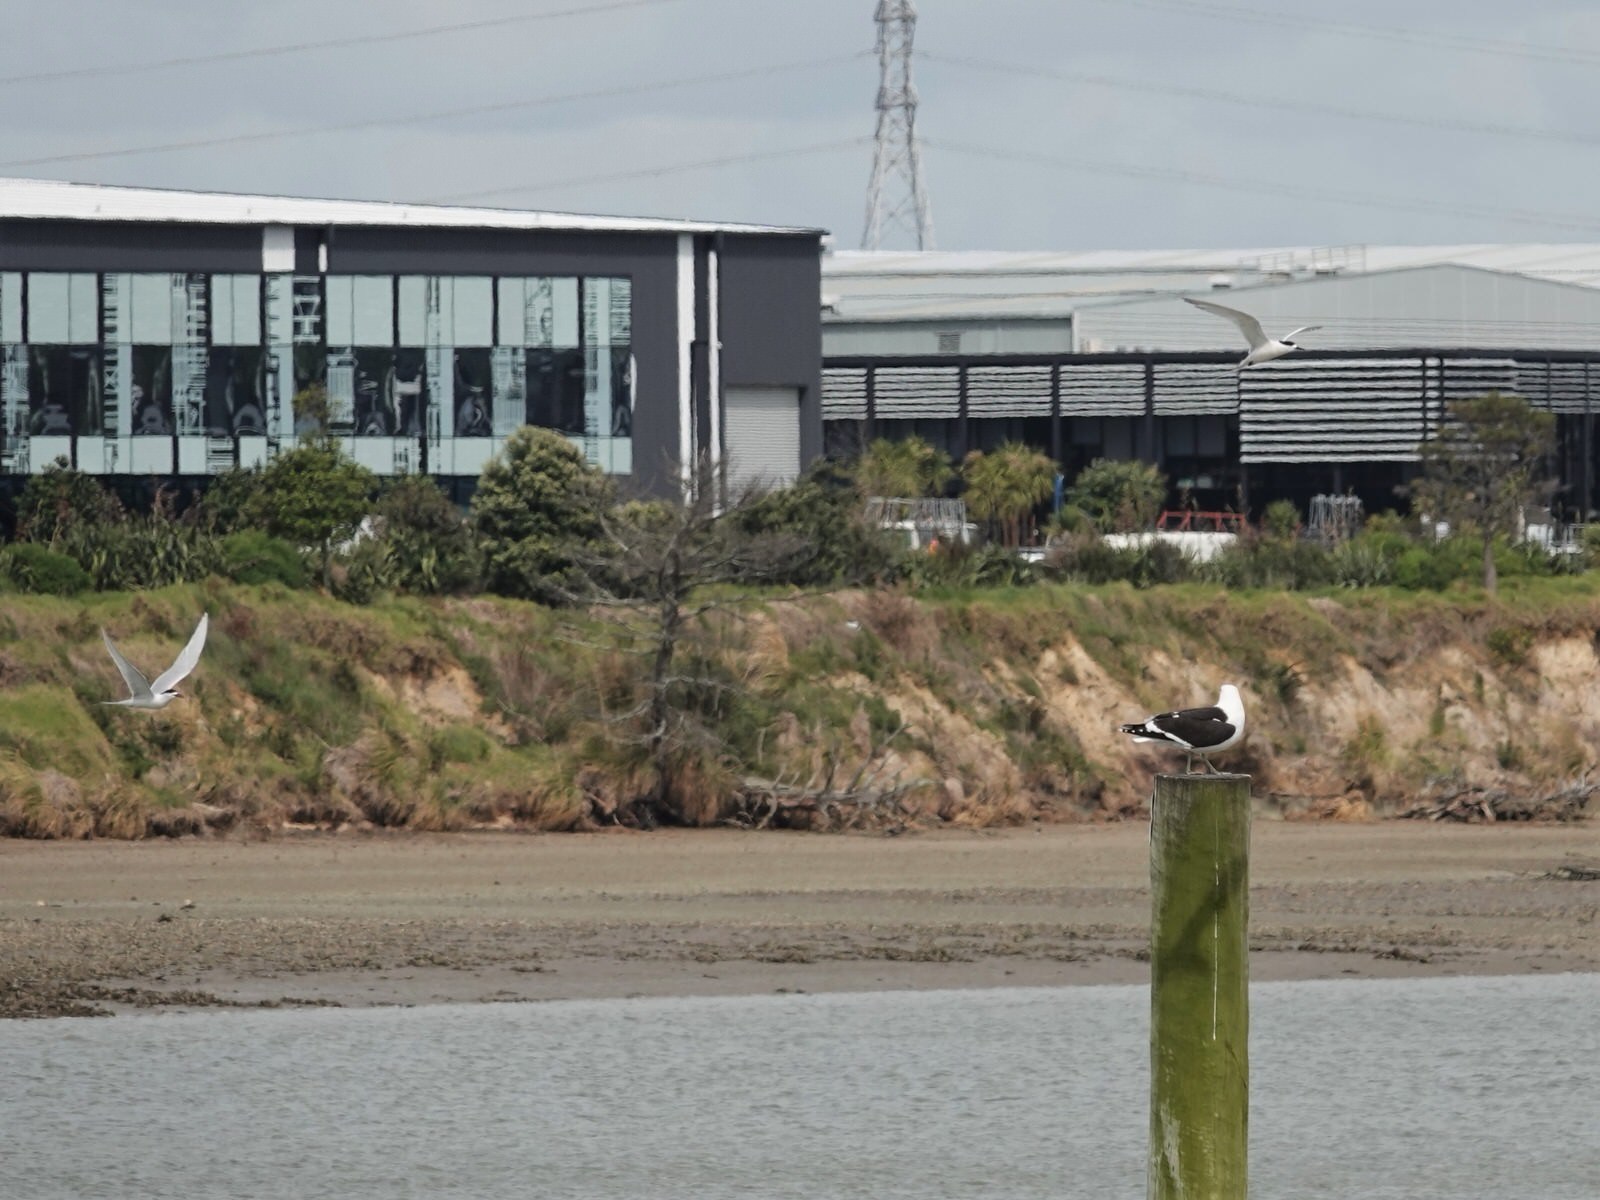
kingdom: Animalia
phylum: Chordata
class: Aves
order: Charadriiformes
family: Laridae
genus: Larus
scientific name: Larus dominicanus
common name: Kelp gull
